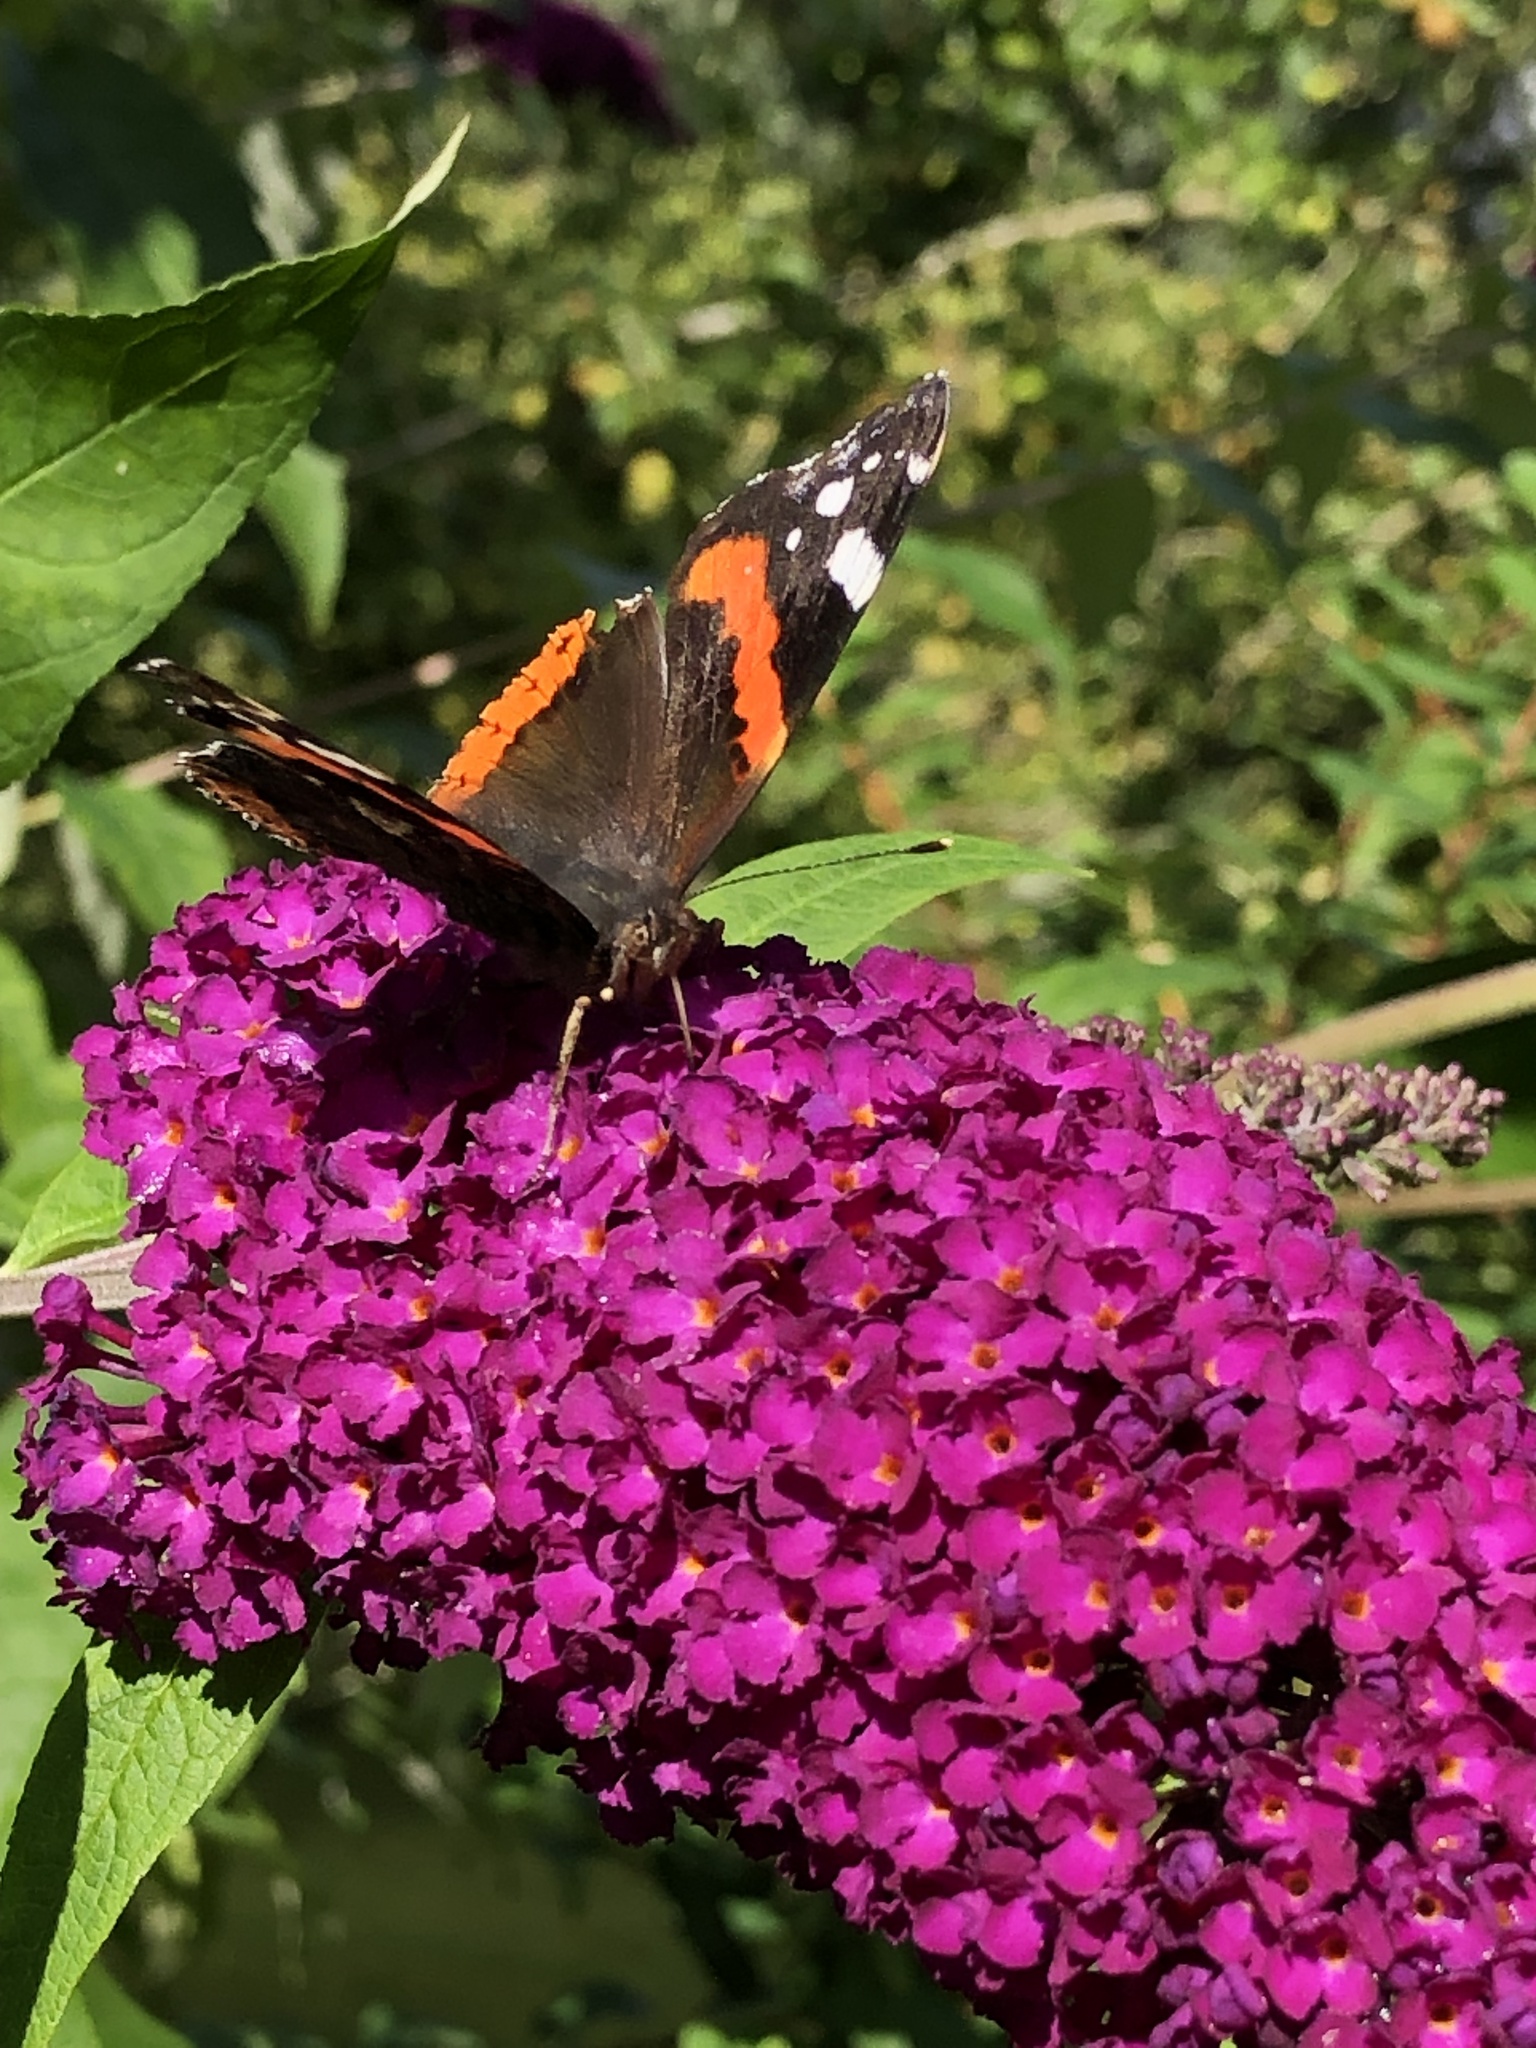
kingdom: Animalia
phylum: Arthropoda
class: Insecta
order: Lepidoptera
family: Nymphalidae
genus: Vanessa
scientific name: Vanessa atalanta
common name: Red admiral
